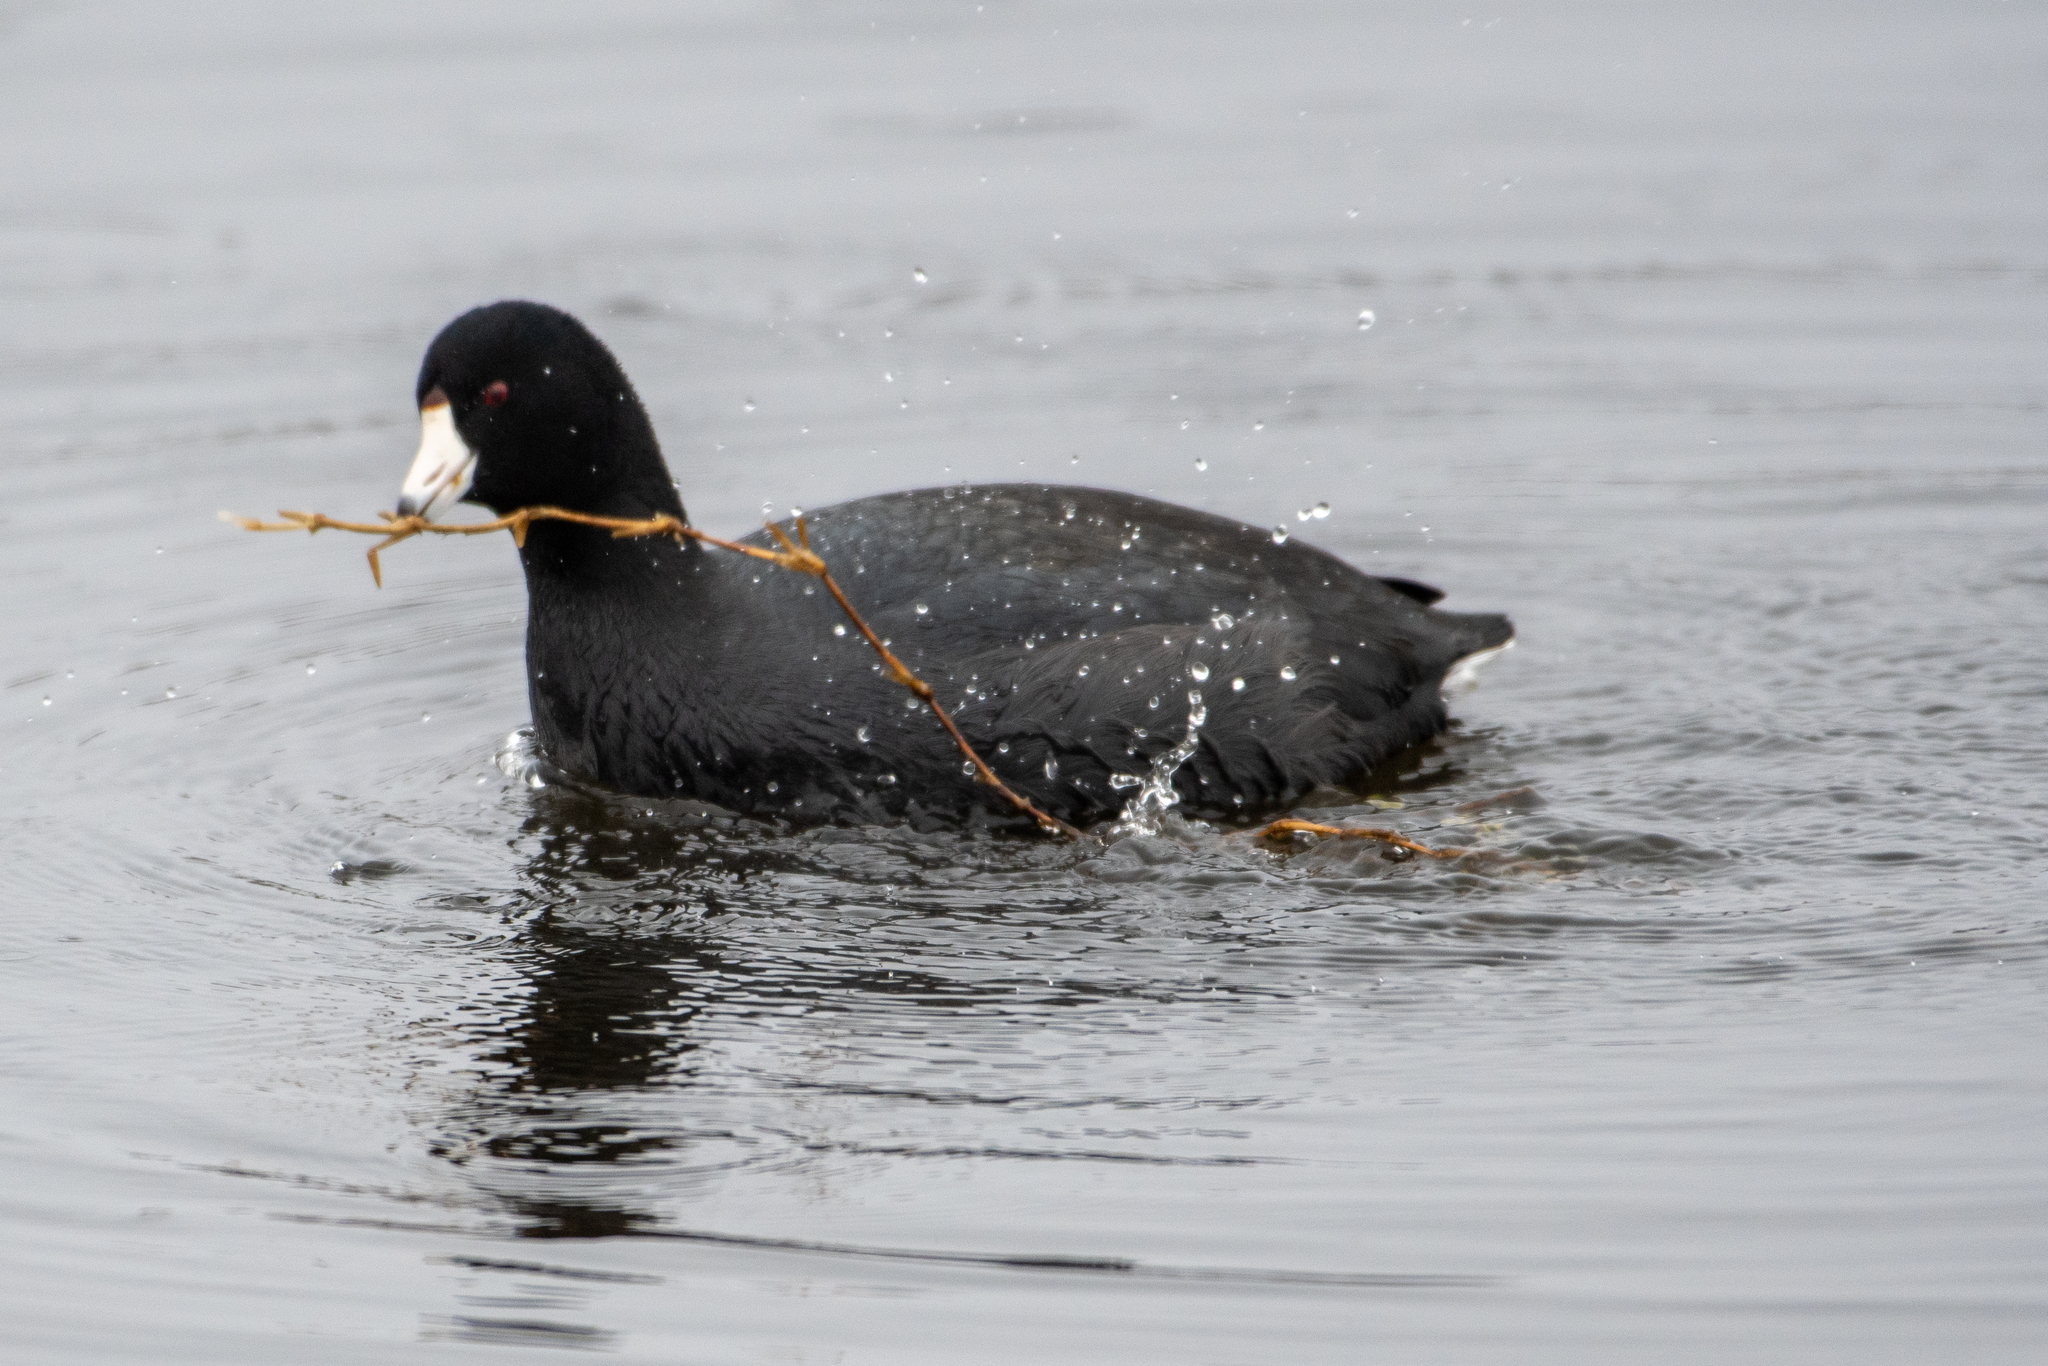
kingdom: Animalia
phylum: Chordata
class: Aves
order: Gruiformes
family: Rallidae
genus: Fulica
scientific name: Fulica americana
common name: American coot
